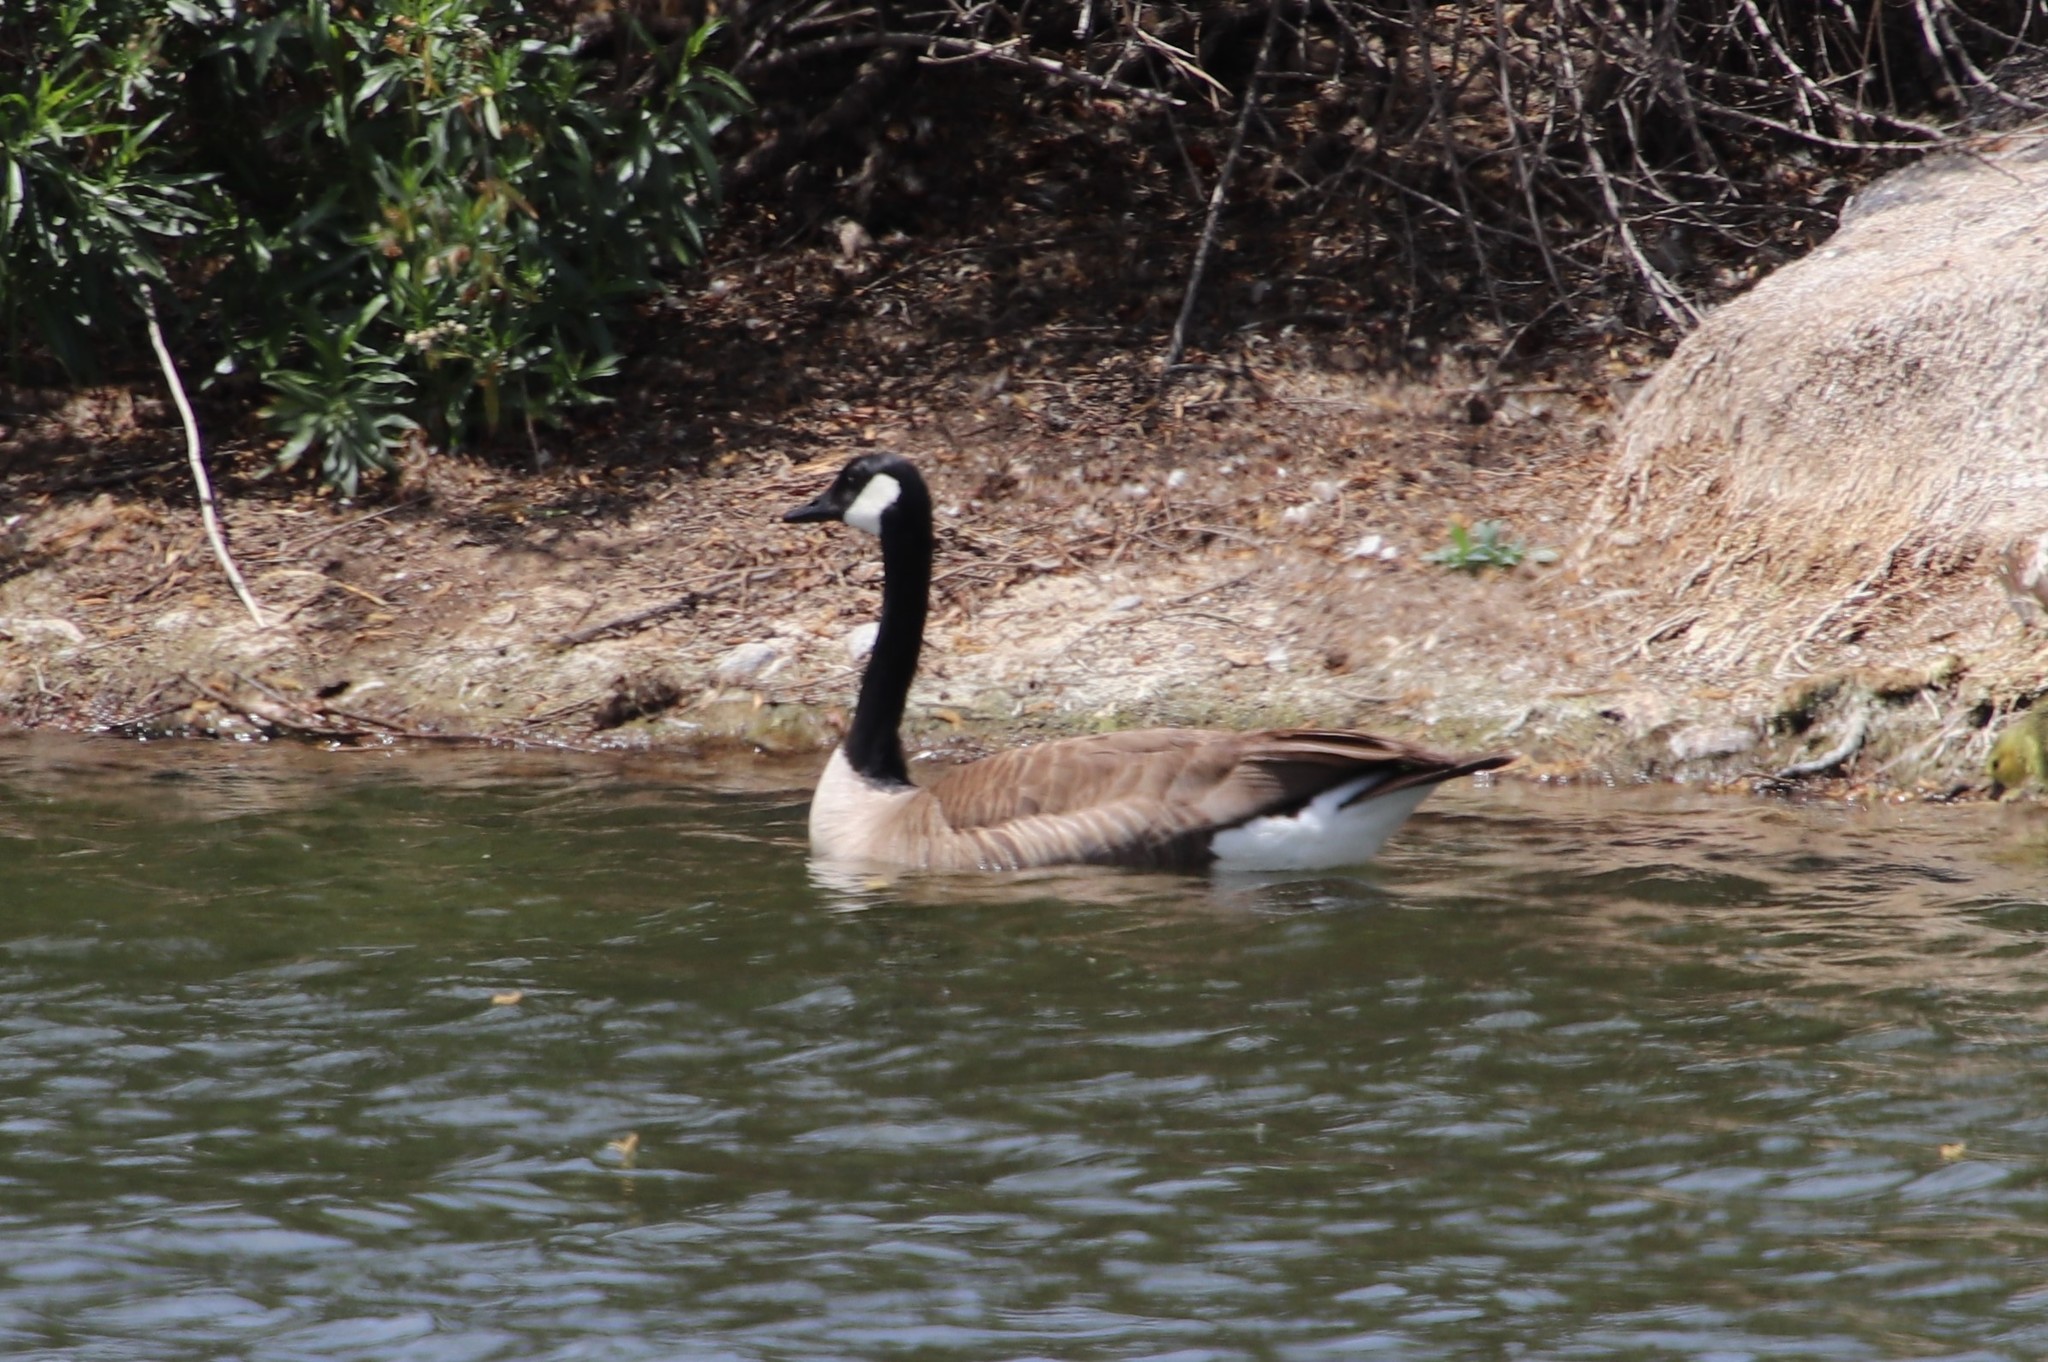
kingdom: Animalia
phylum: Chordata
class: Aves
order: Anseriformes
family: Anatidae
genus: Branta
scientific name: Branta canadensis
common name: Canada goose
